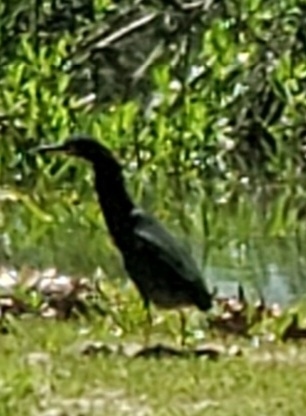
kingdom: Animalia
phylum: Chordata
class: Aves
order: Pelecaniformes
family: Ardeidae
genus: Butorides
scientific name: Butorides virescens
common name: Green heron
